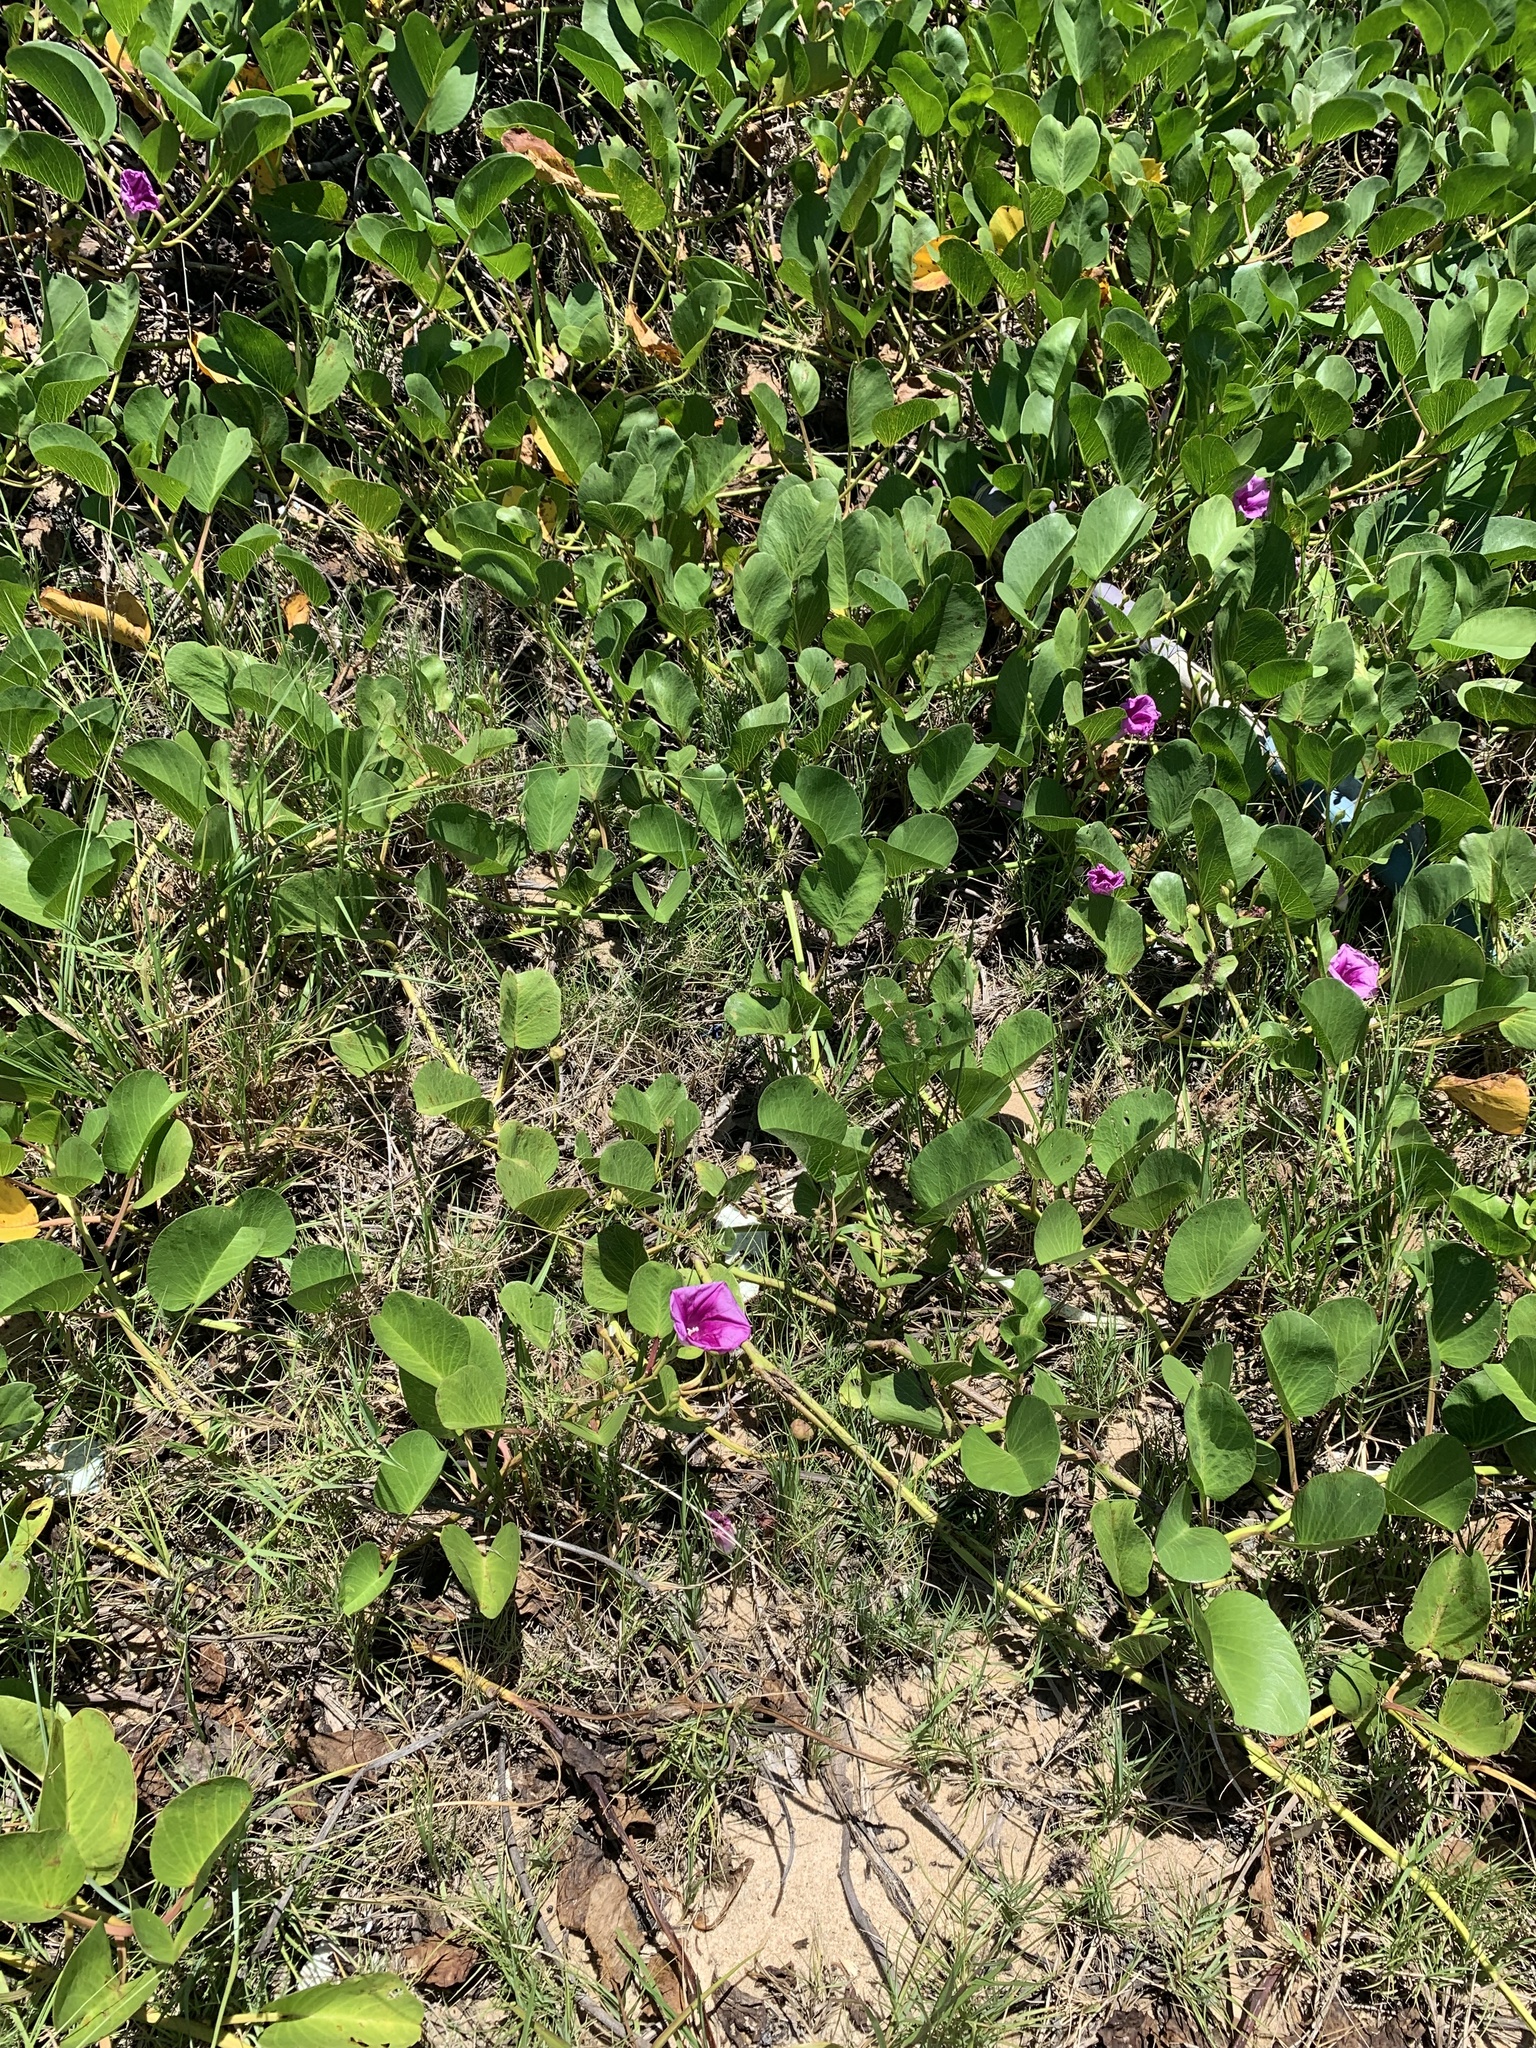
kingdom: Plantae
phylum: Tracheophyta
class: Magnoliopsida
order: Solanales
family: Convolvulaceae
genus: Ipomoea
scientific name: Ipomoea pes-caprae
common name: Beach morning glory
